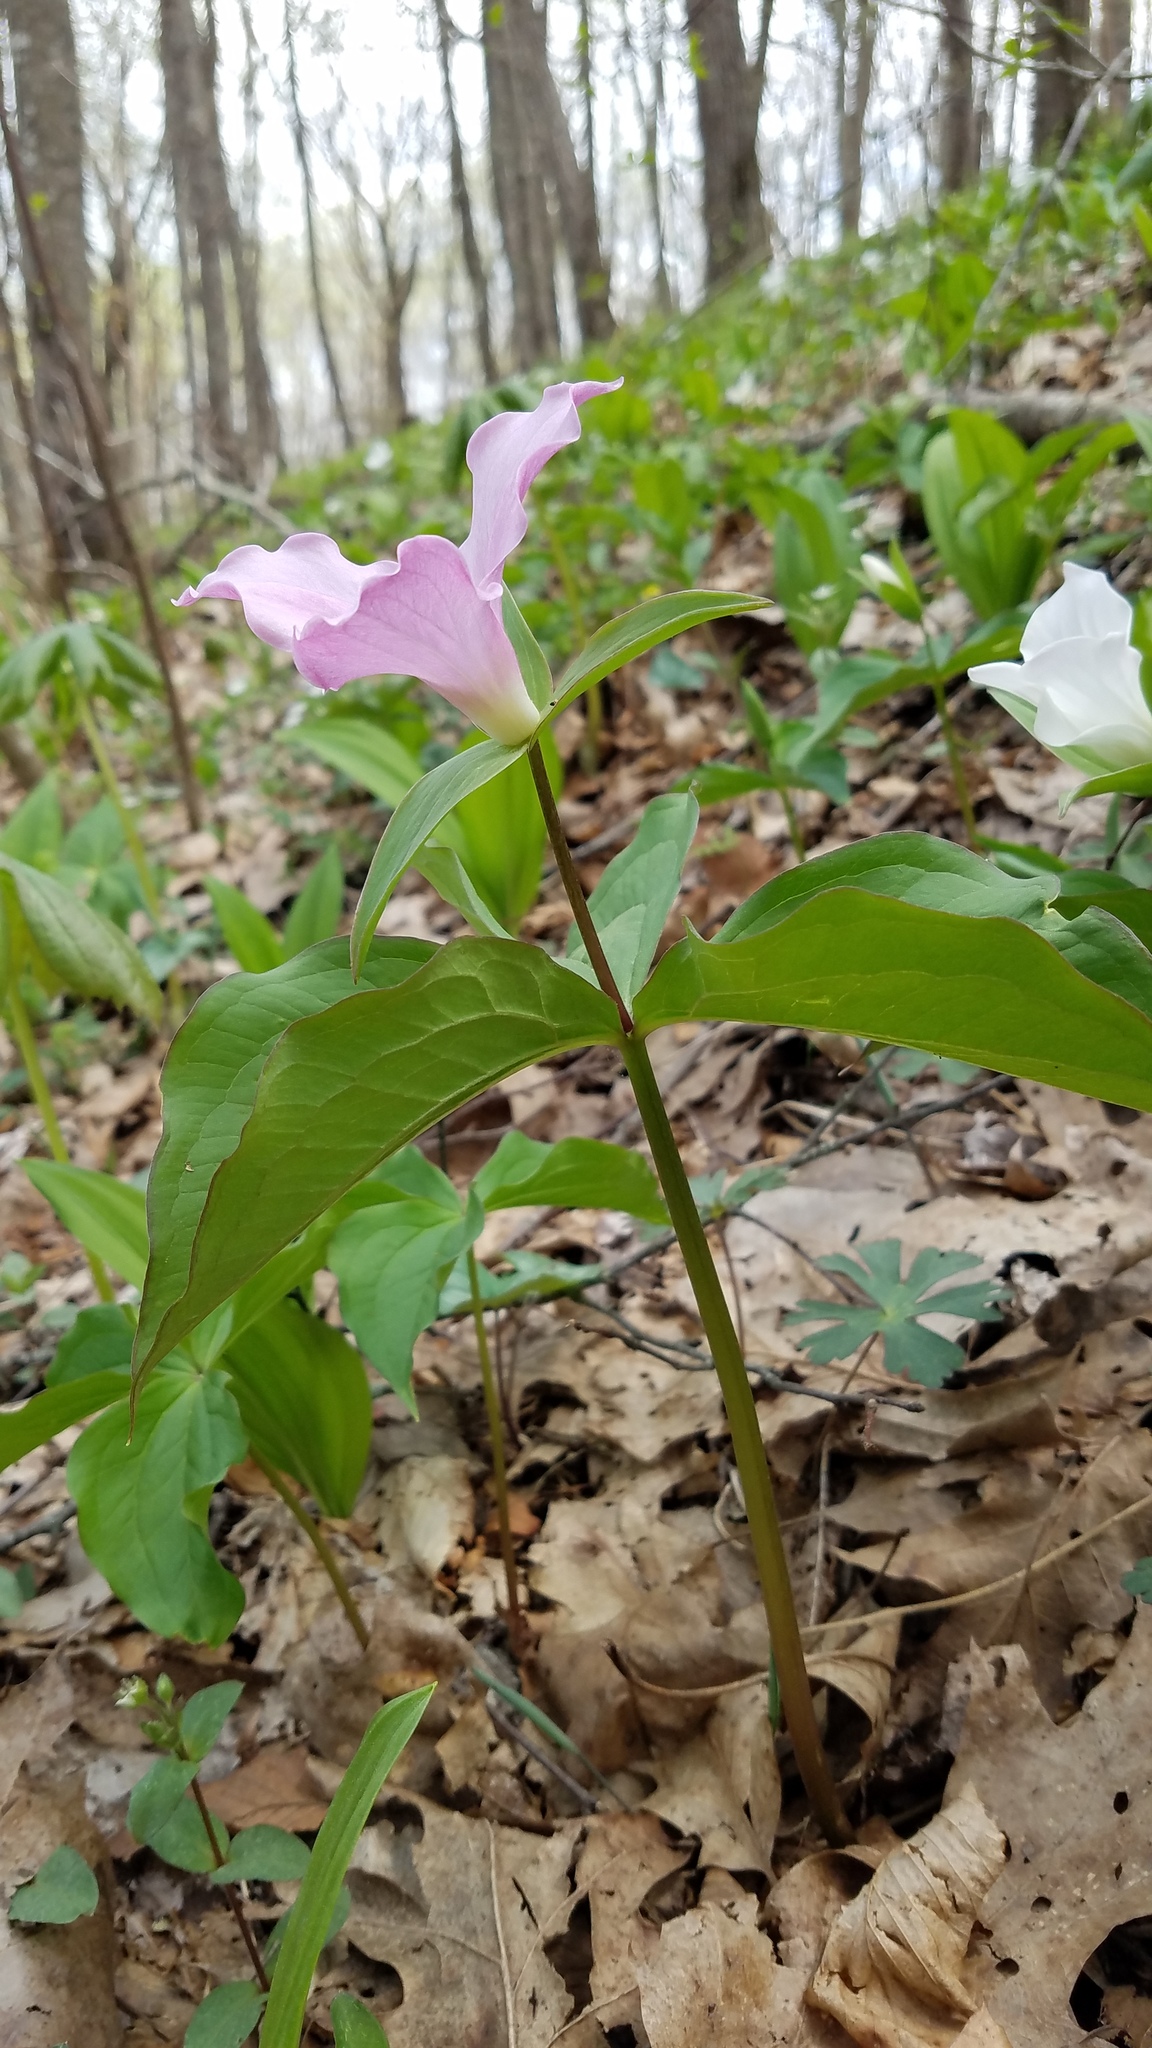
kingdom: Plantae
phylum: Tracheophyta
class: Liliopsida
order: Liliales
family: Melanthiaceae
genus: Trillium
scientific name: Trillium grandiflorum
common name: Great white trillium
